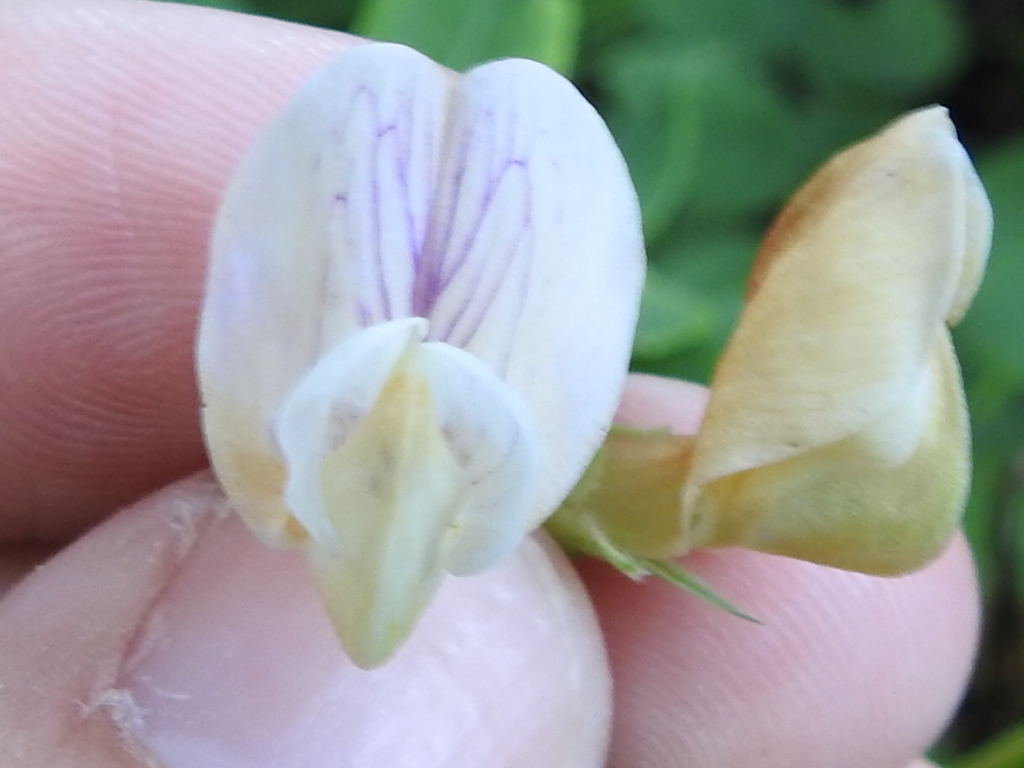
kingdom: Plantae
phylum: Tracheophyta
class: Magnoliopsida
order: Fabales
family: Fabaceae
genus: Lathyrus
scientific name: Lathyrus jepsonii
